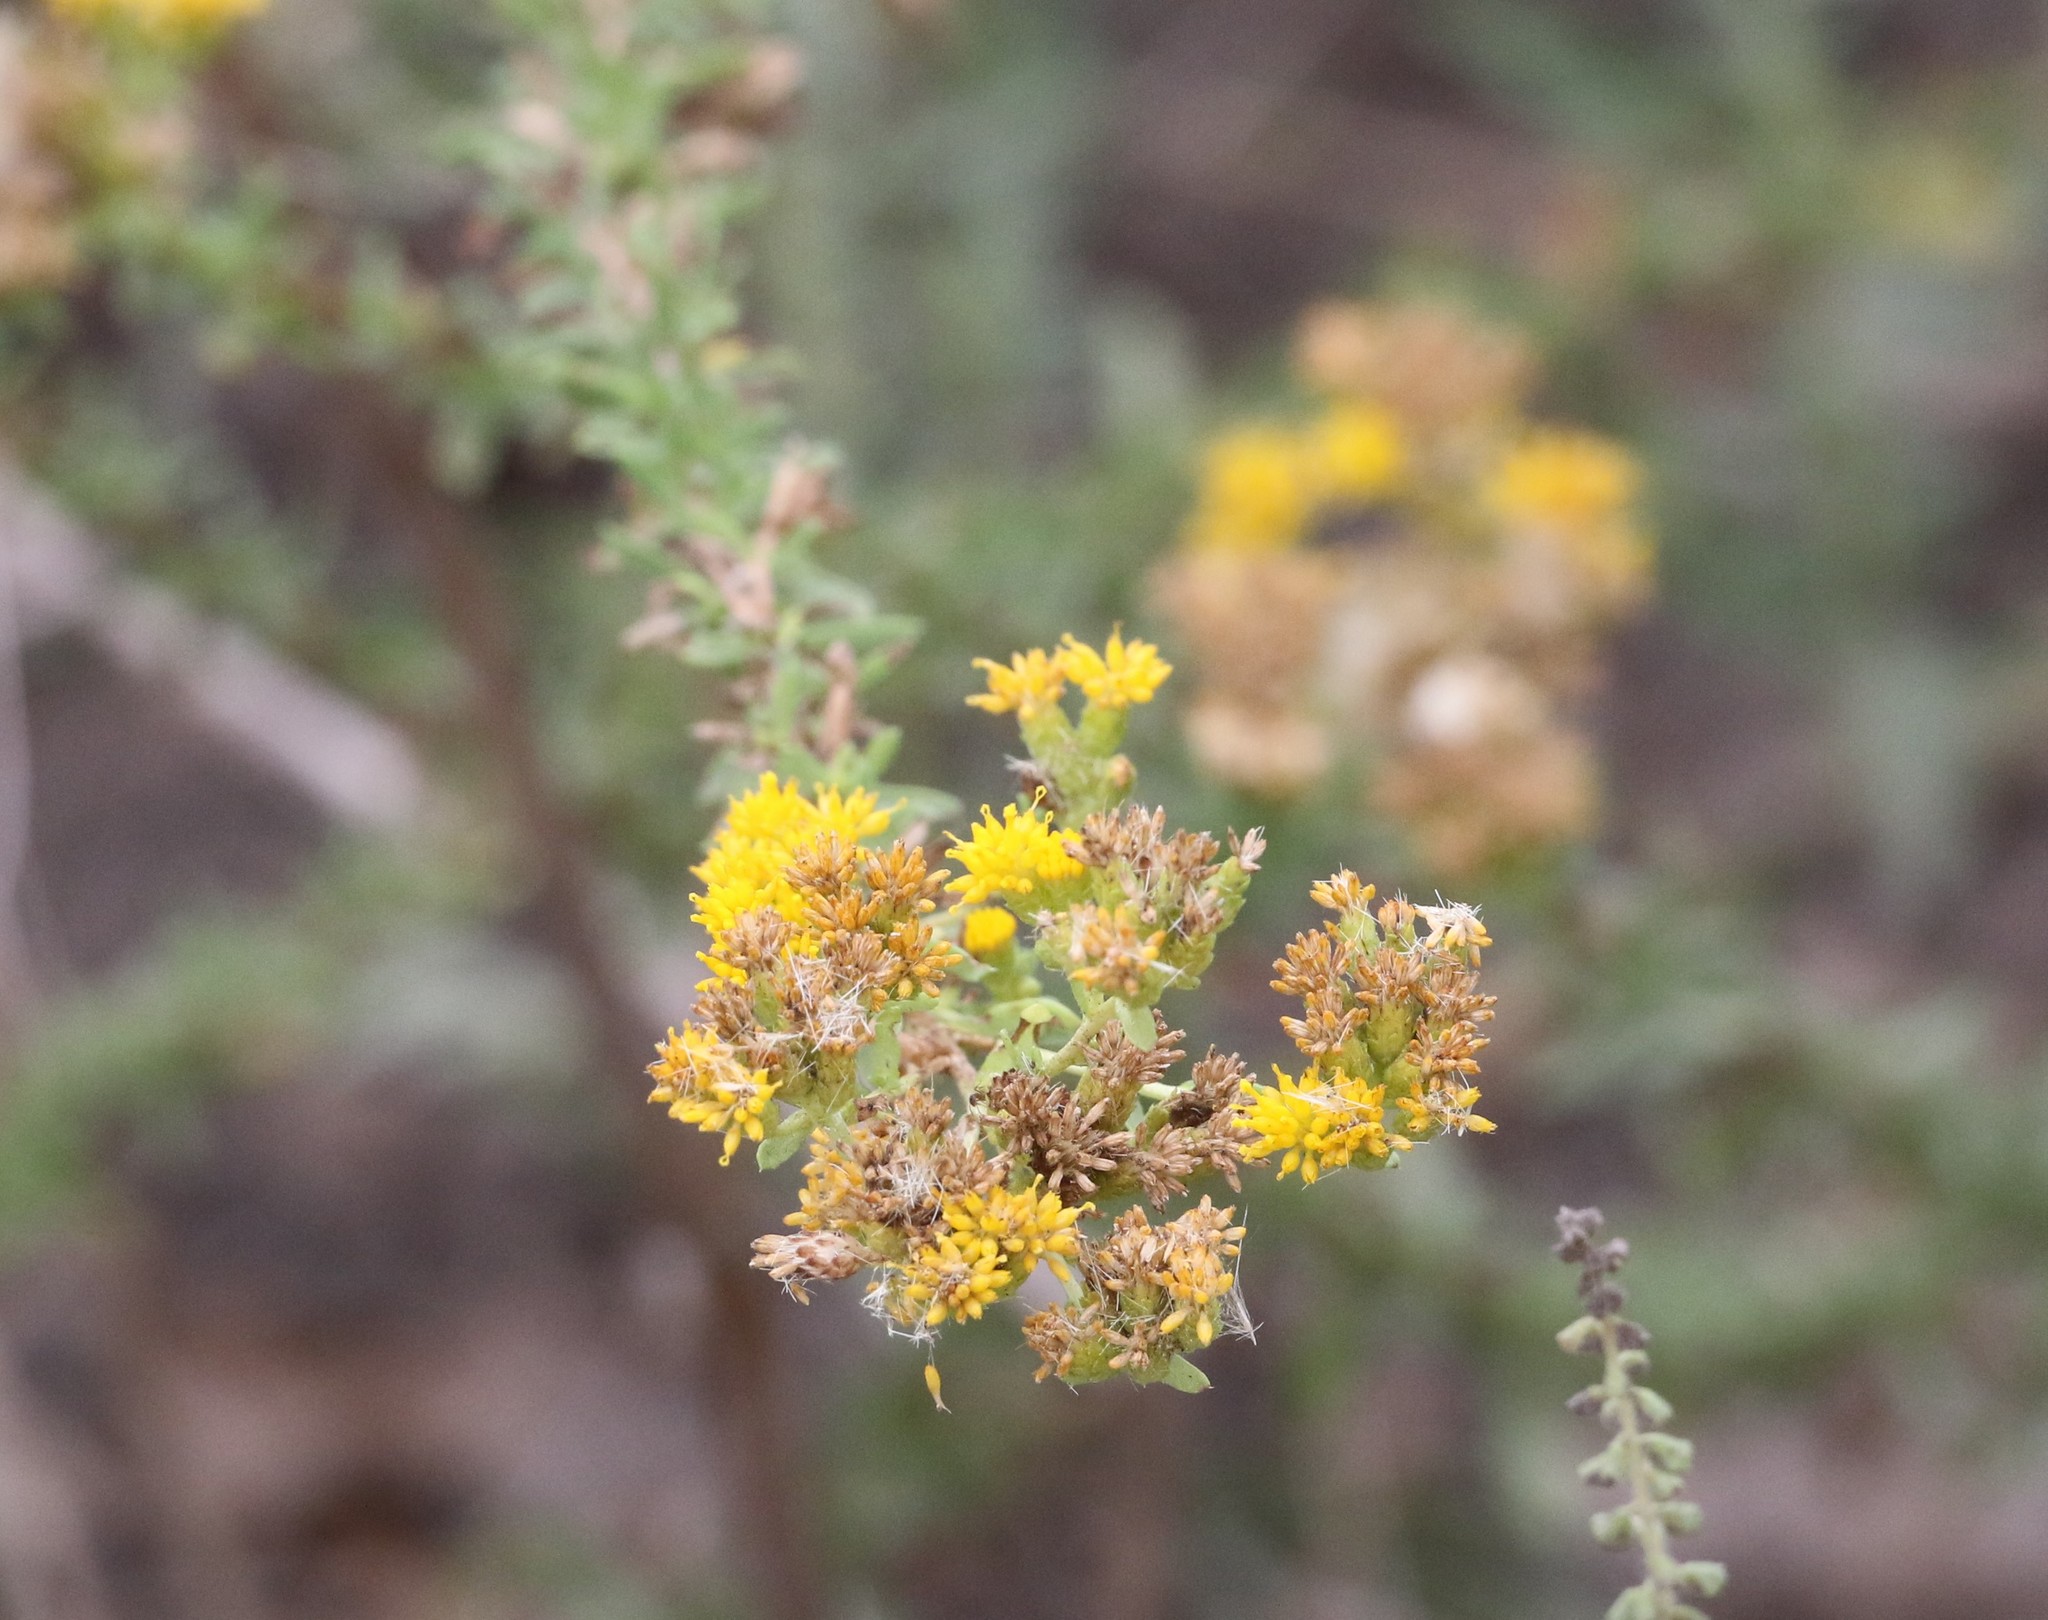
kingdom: Plantae
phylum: Tracheophyta
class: Magnoliopsida
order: Asterales
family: Asteraceae
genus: Isocoma
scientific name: Isocoma menziesii
